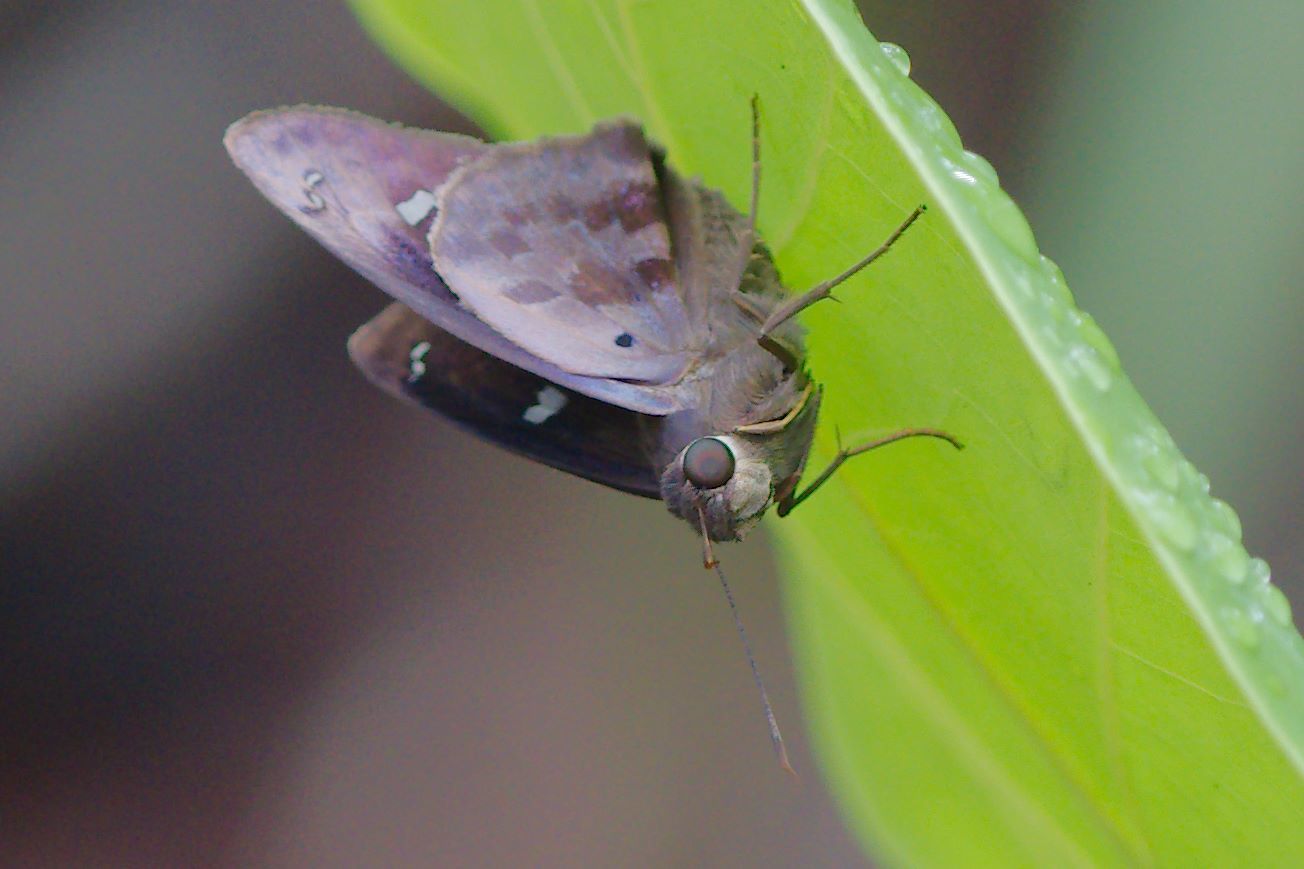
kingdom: Animalia
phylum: Arthropoda
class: Insecta
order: Lepidoptera
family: Hesperiidae
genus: Polygonus
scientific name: Polygonus leo
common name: Hammoch skipper
